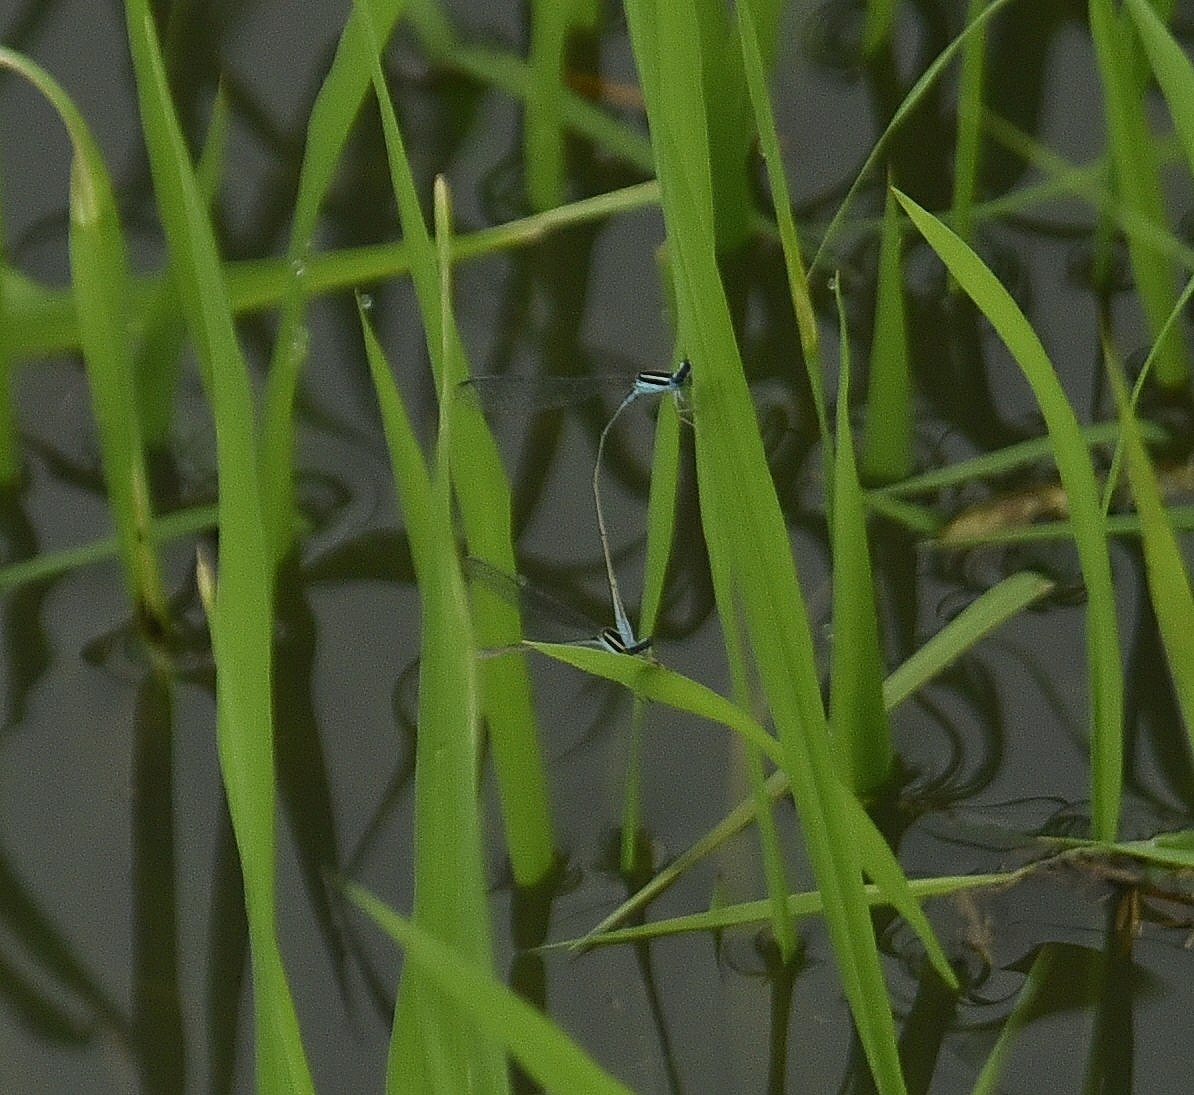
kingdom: Animalia
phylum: Arthropoda
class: Insecta
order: Odonata
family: Coenagrionidae
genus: Aciagrion
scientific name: Aciagrion occidentale
